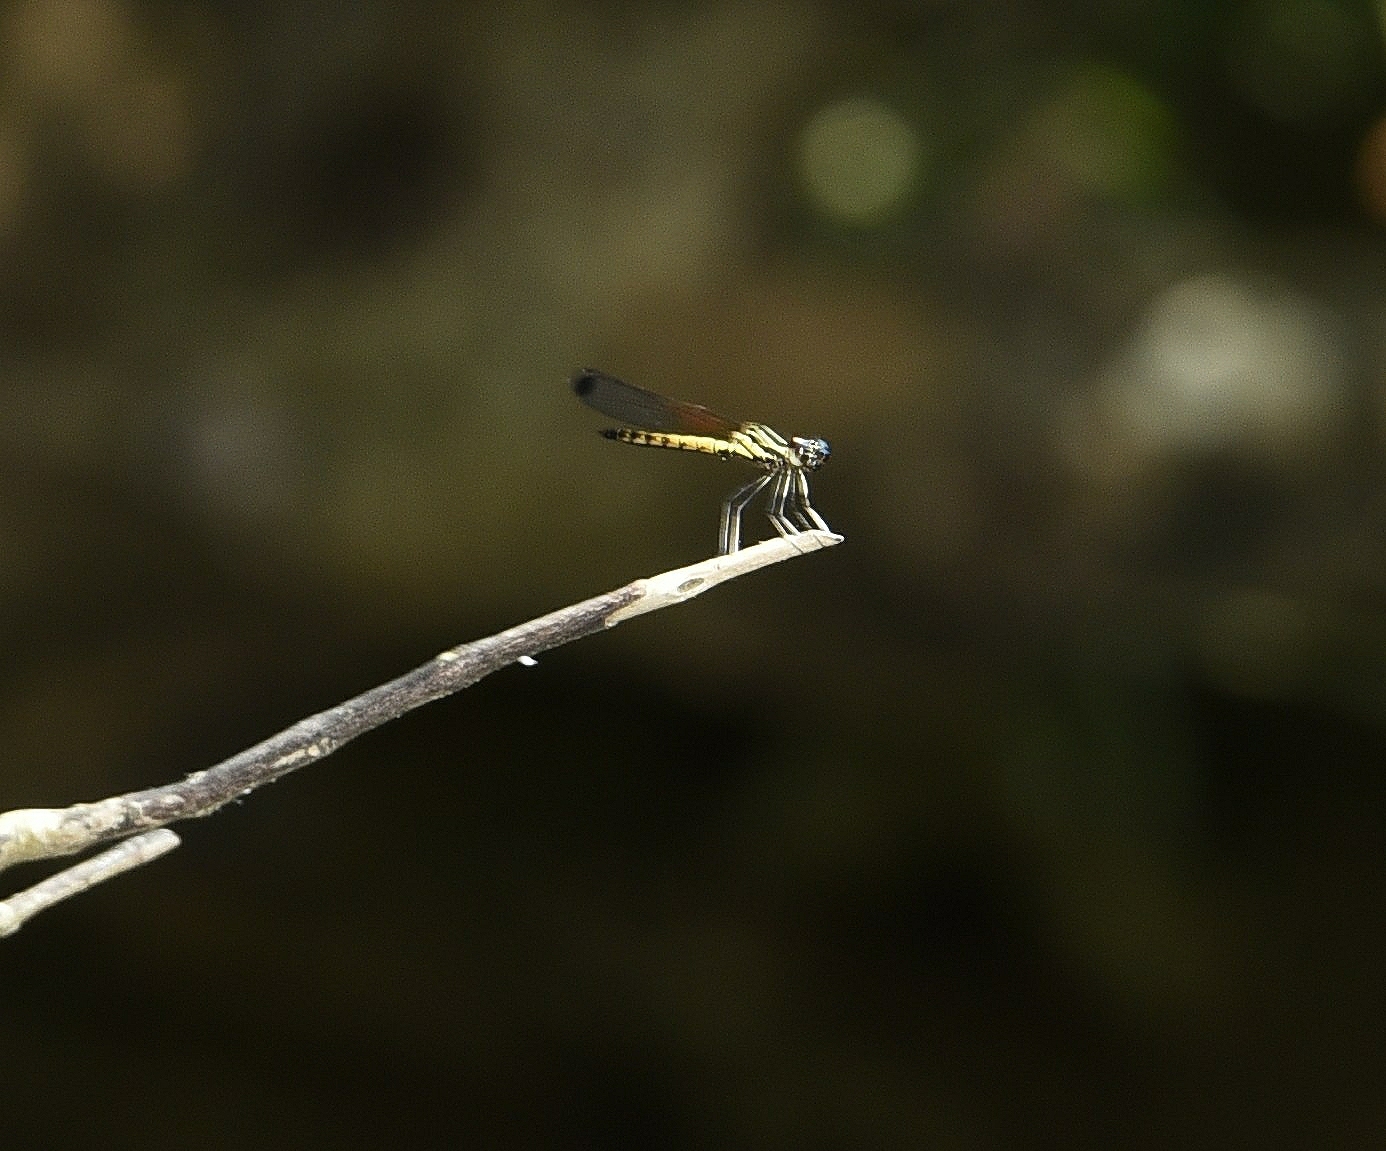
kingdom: Animalia
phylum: Arthropoda
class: Insecta
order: Odonata
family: Chlorocyphidae
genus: Libellago
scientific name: Libellago indica
